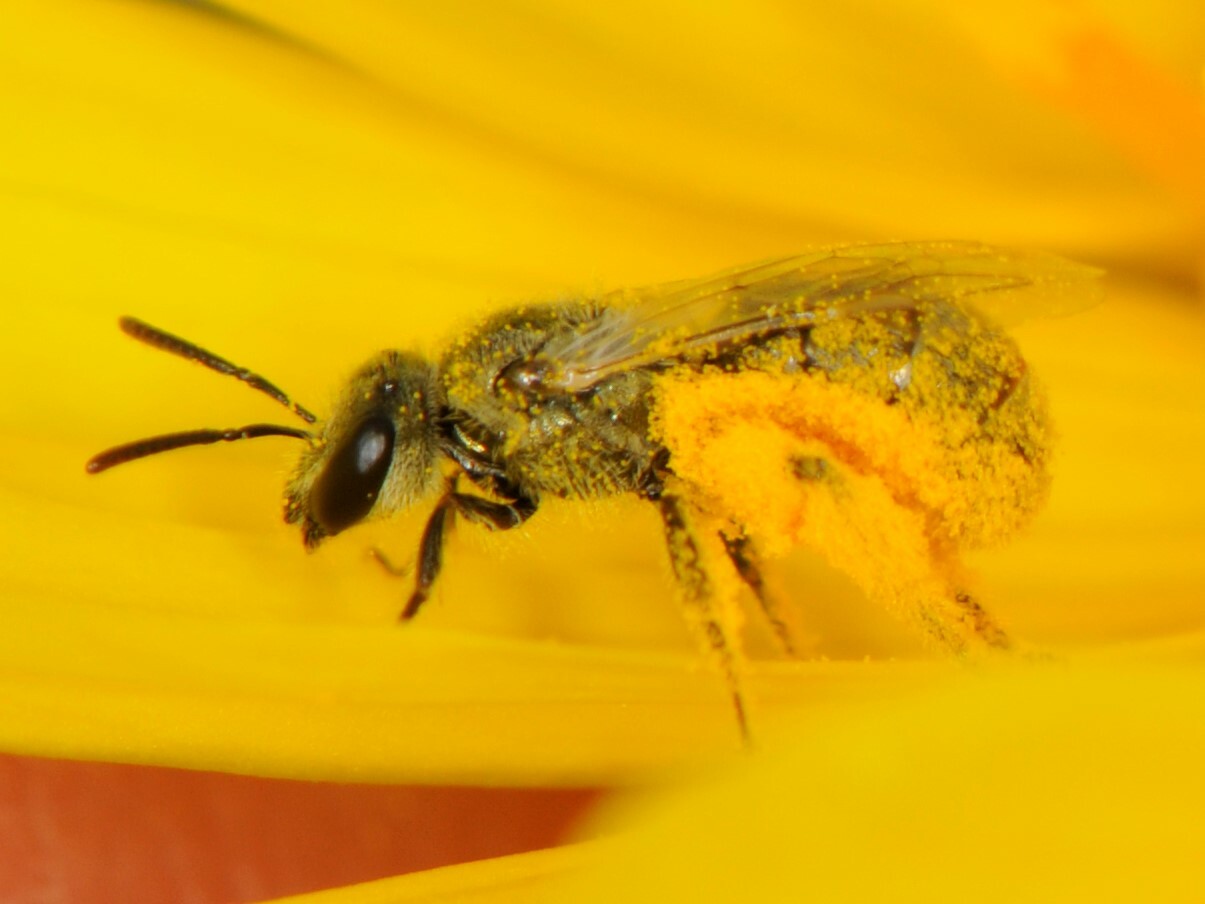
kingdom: Animalia
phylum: Arthropoda
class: Insecta
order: Hymenoptera
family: Halictidae
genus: Dialictus
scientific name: Dialictus
